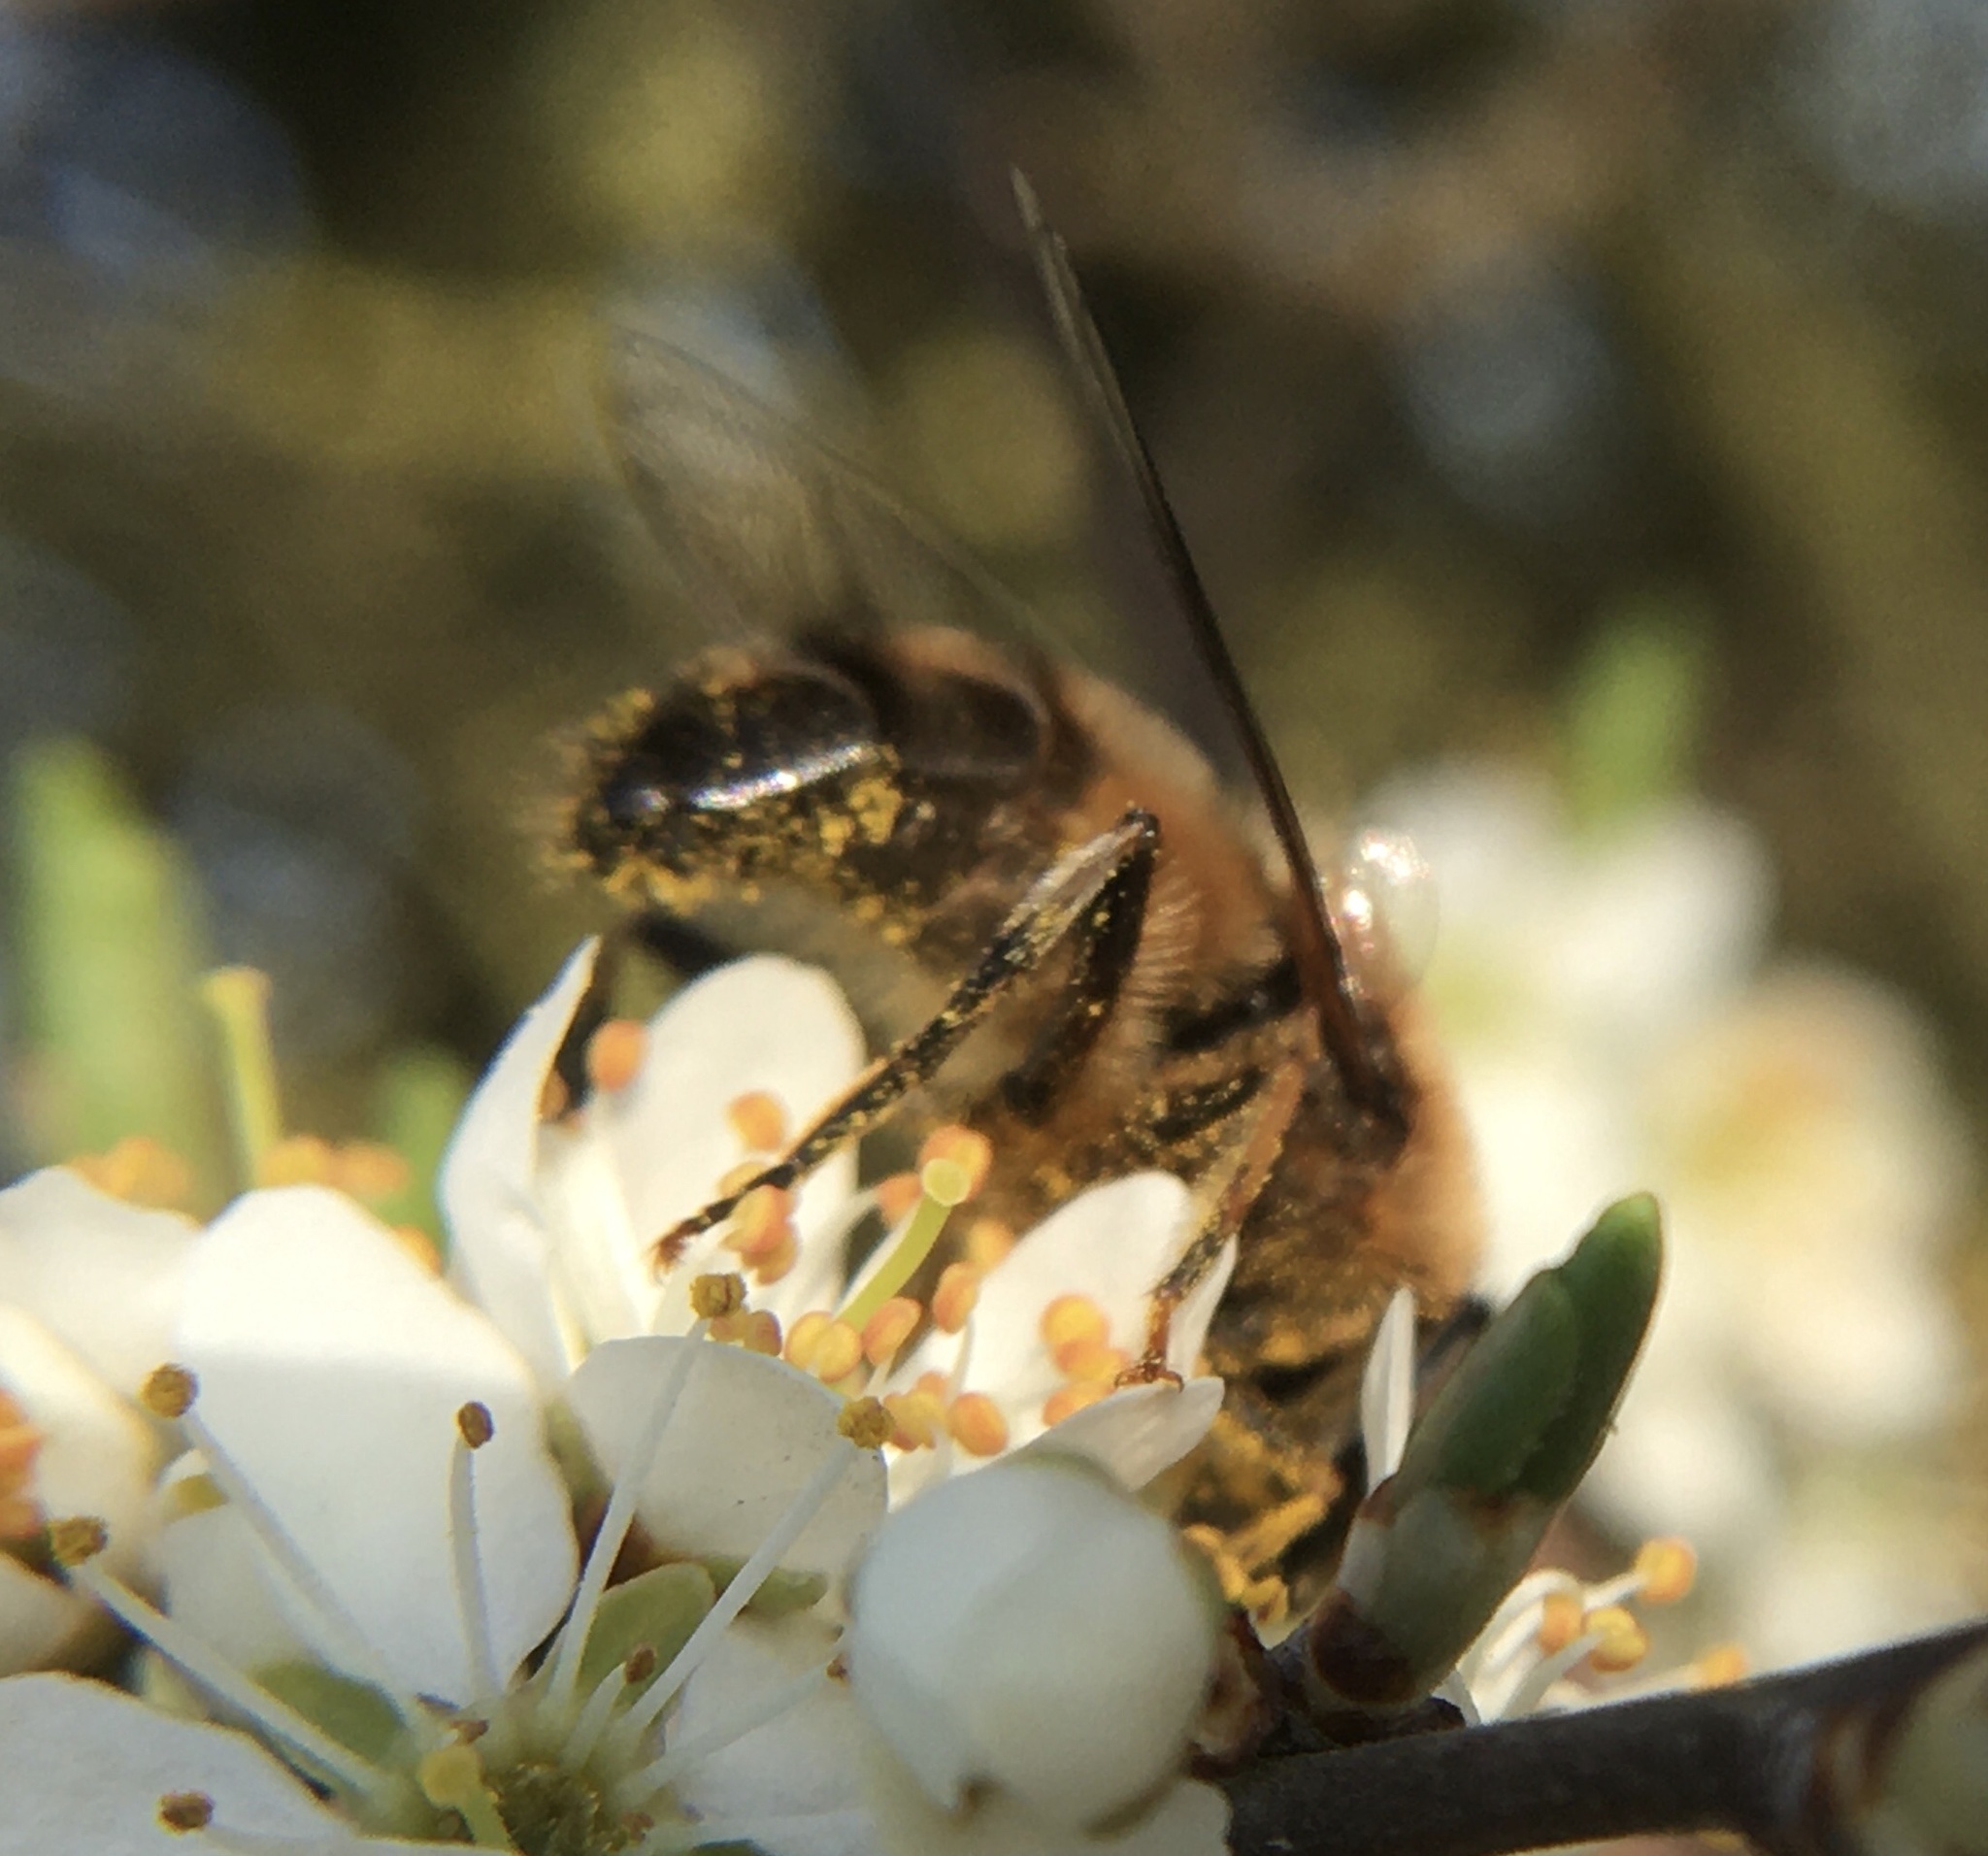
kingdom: Animalia
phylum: Arthropoda
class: Insecta
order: Diptera
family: Syrphidae
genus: Eristalis
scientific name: Eristalis pertinax
